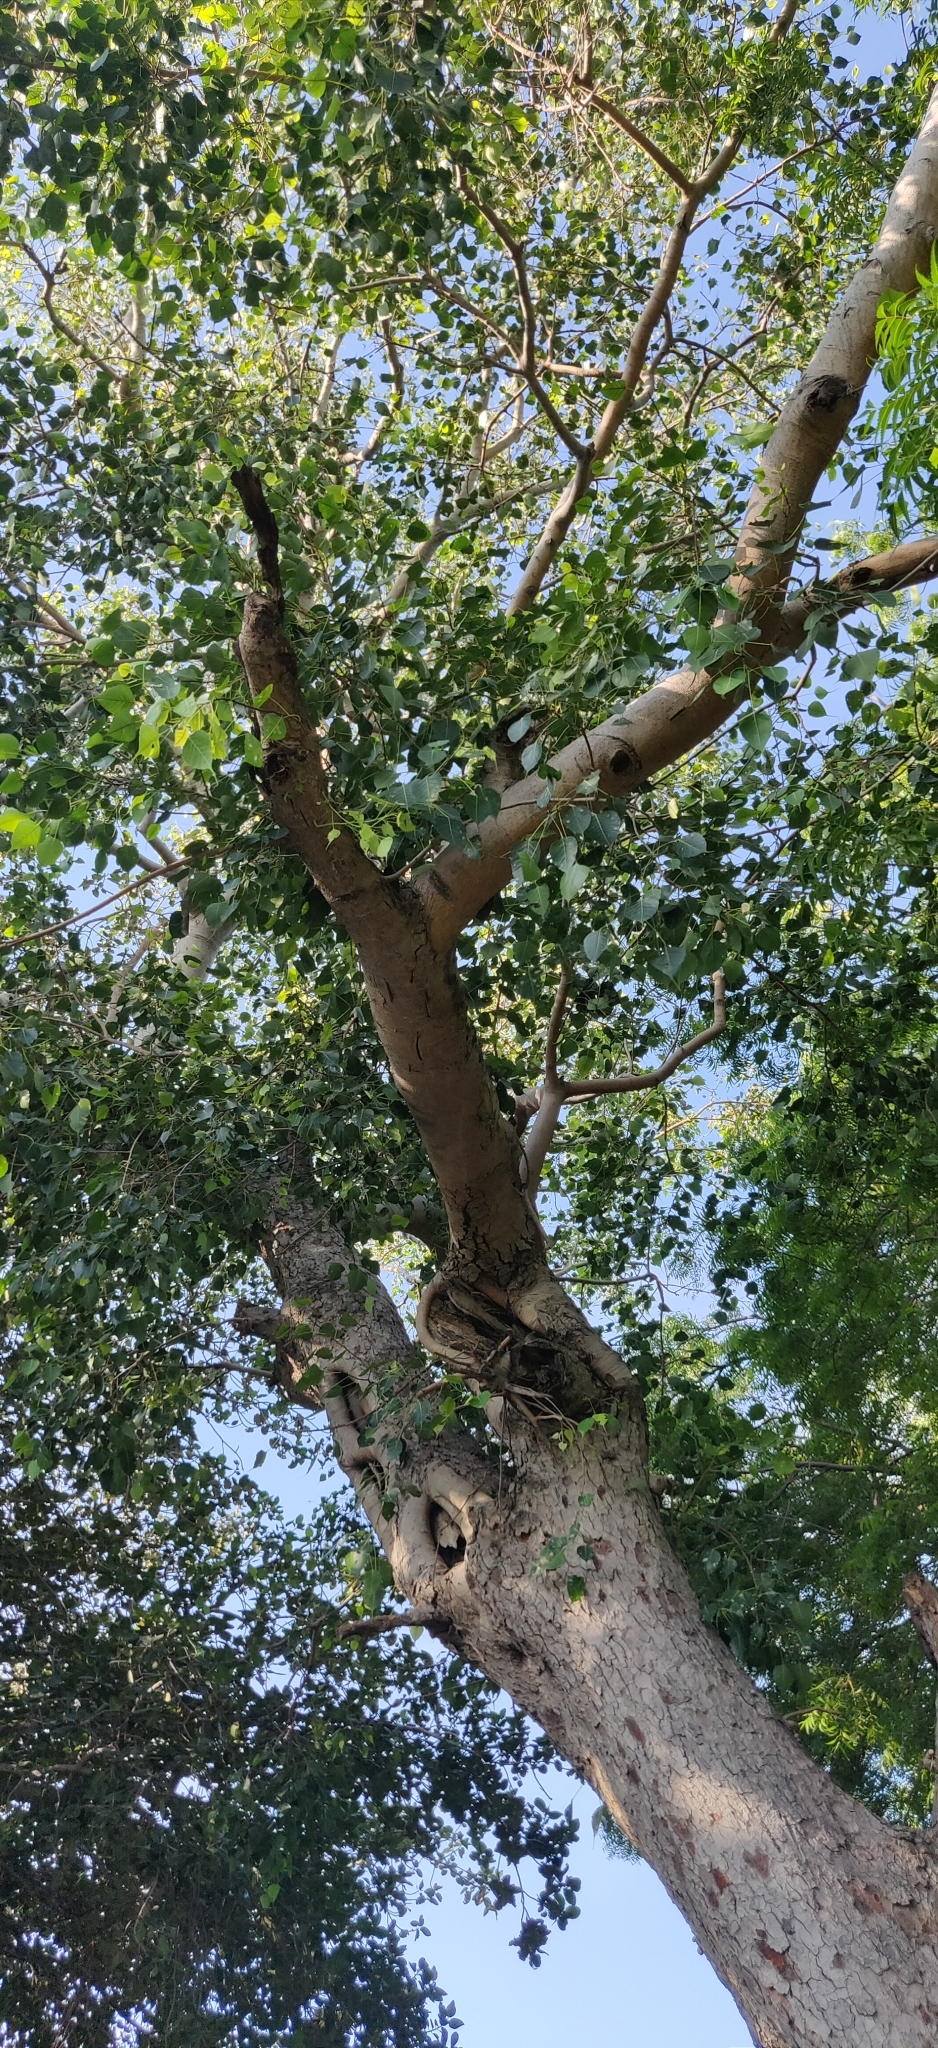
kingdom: Plantae
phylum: Tracheophyta
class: Magnoliopsida
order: Rosales
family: Moraceae
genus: Ficus
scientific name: Ficus religiosa
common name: Bodhi tree
